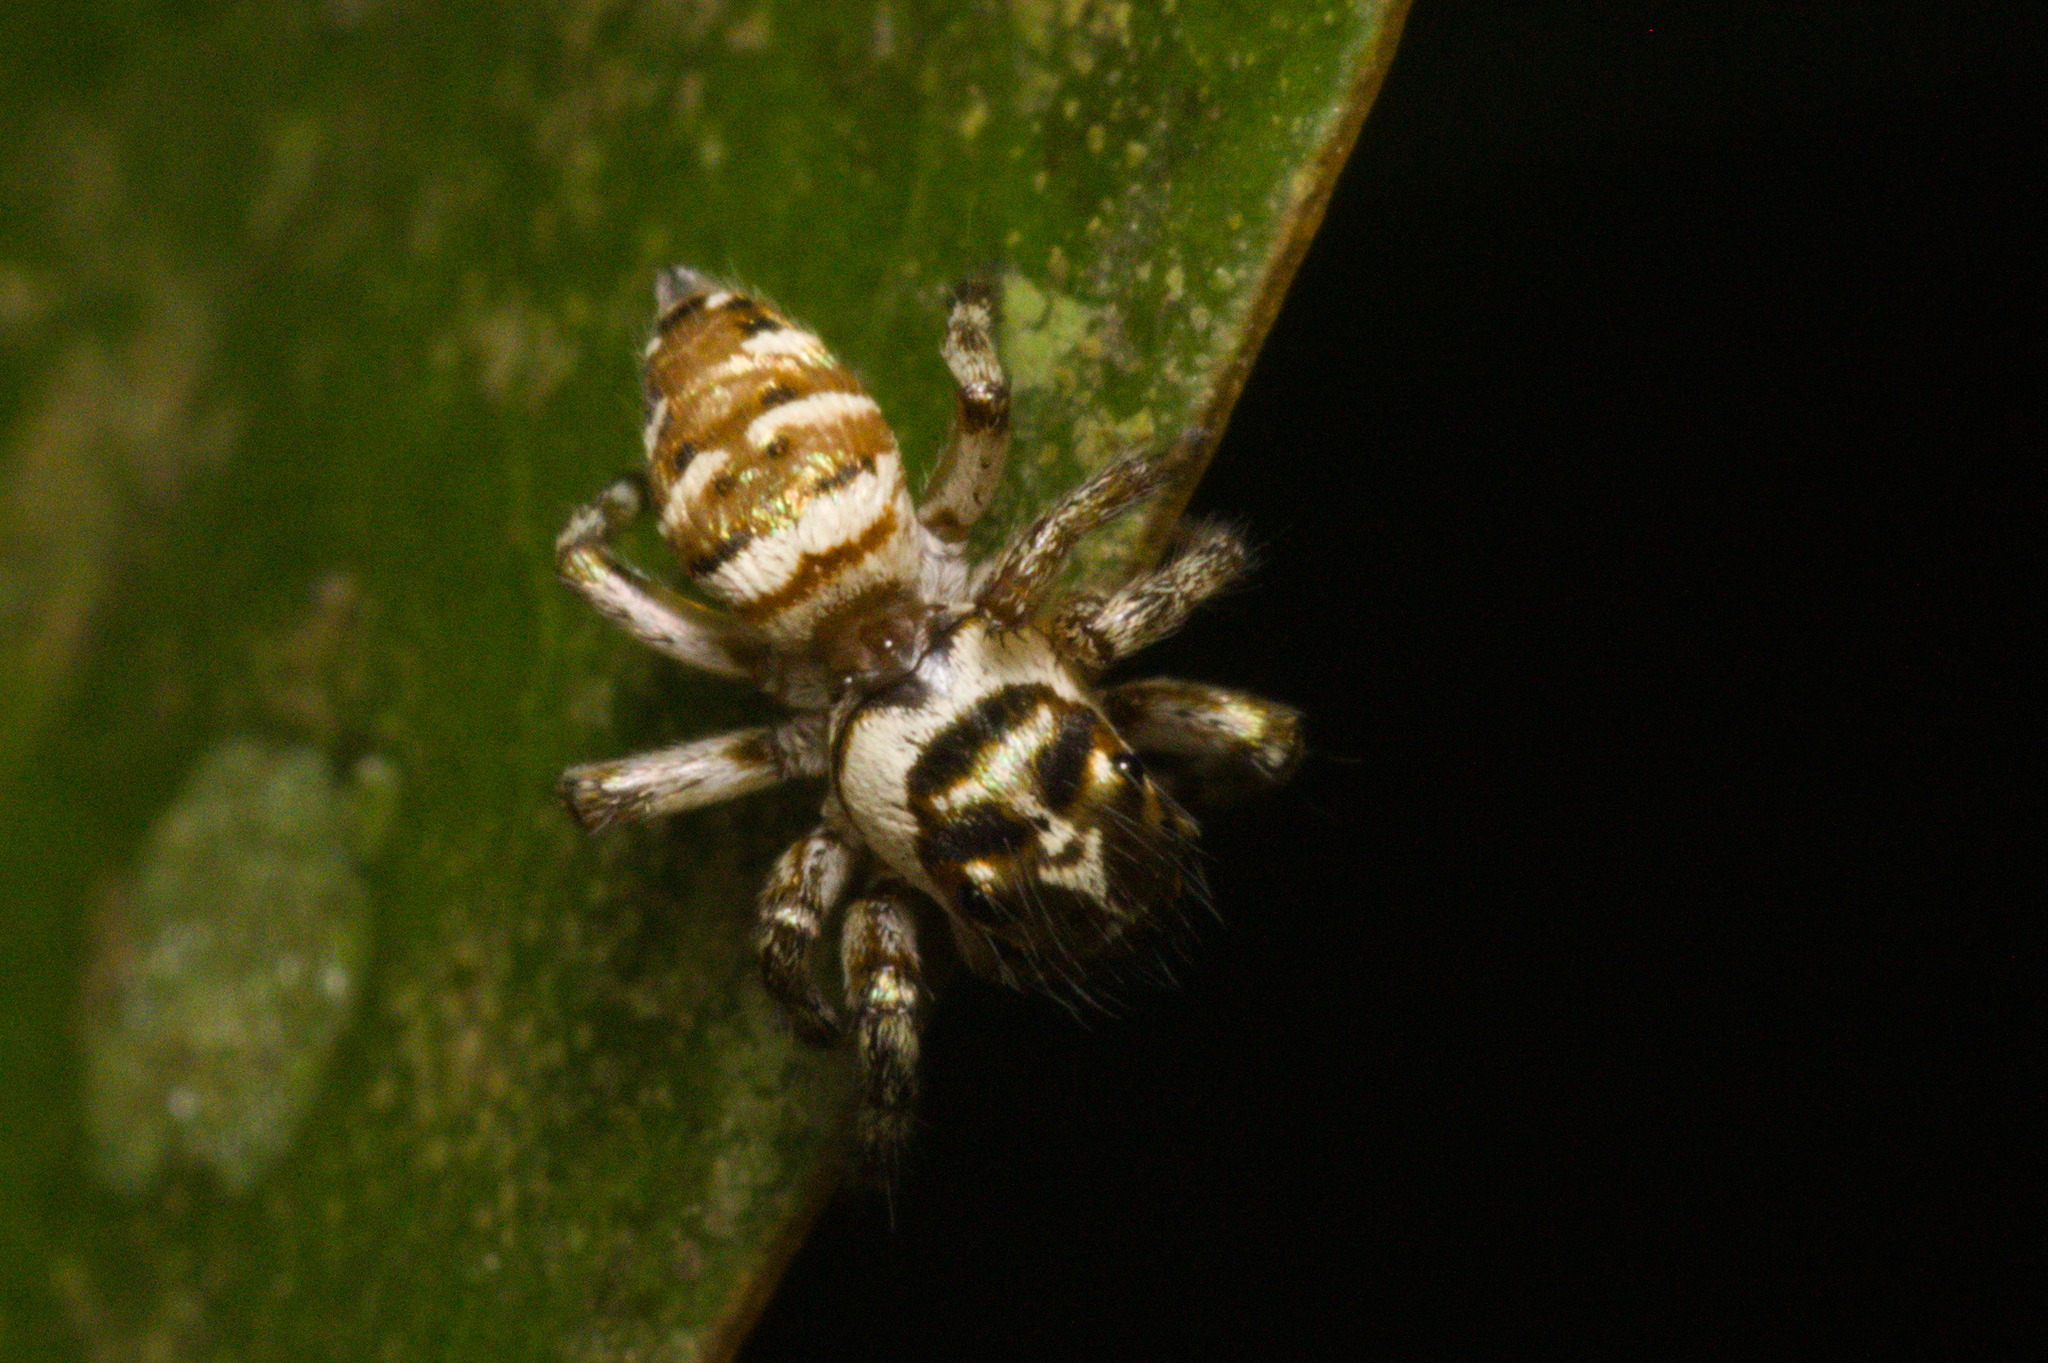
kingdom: Animalia
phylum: Arthropoda
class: Arachnida
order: Araneae
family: Salticidae
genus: Philira
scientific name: Philira micans
